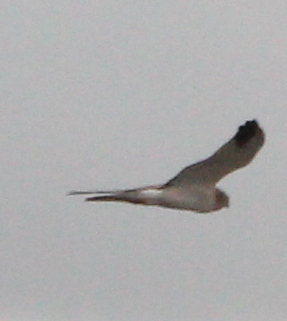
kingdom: Animalia
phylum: Chordata
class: Aves
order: Accipitriformes
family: Accipitridae
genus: Circus
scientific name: Circus macrourus
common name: Pallid harrier
